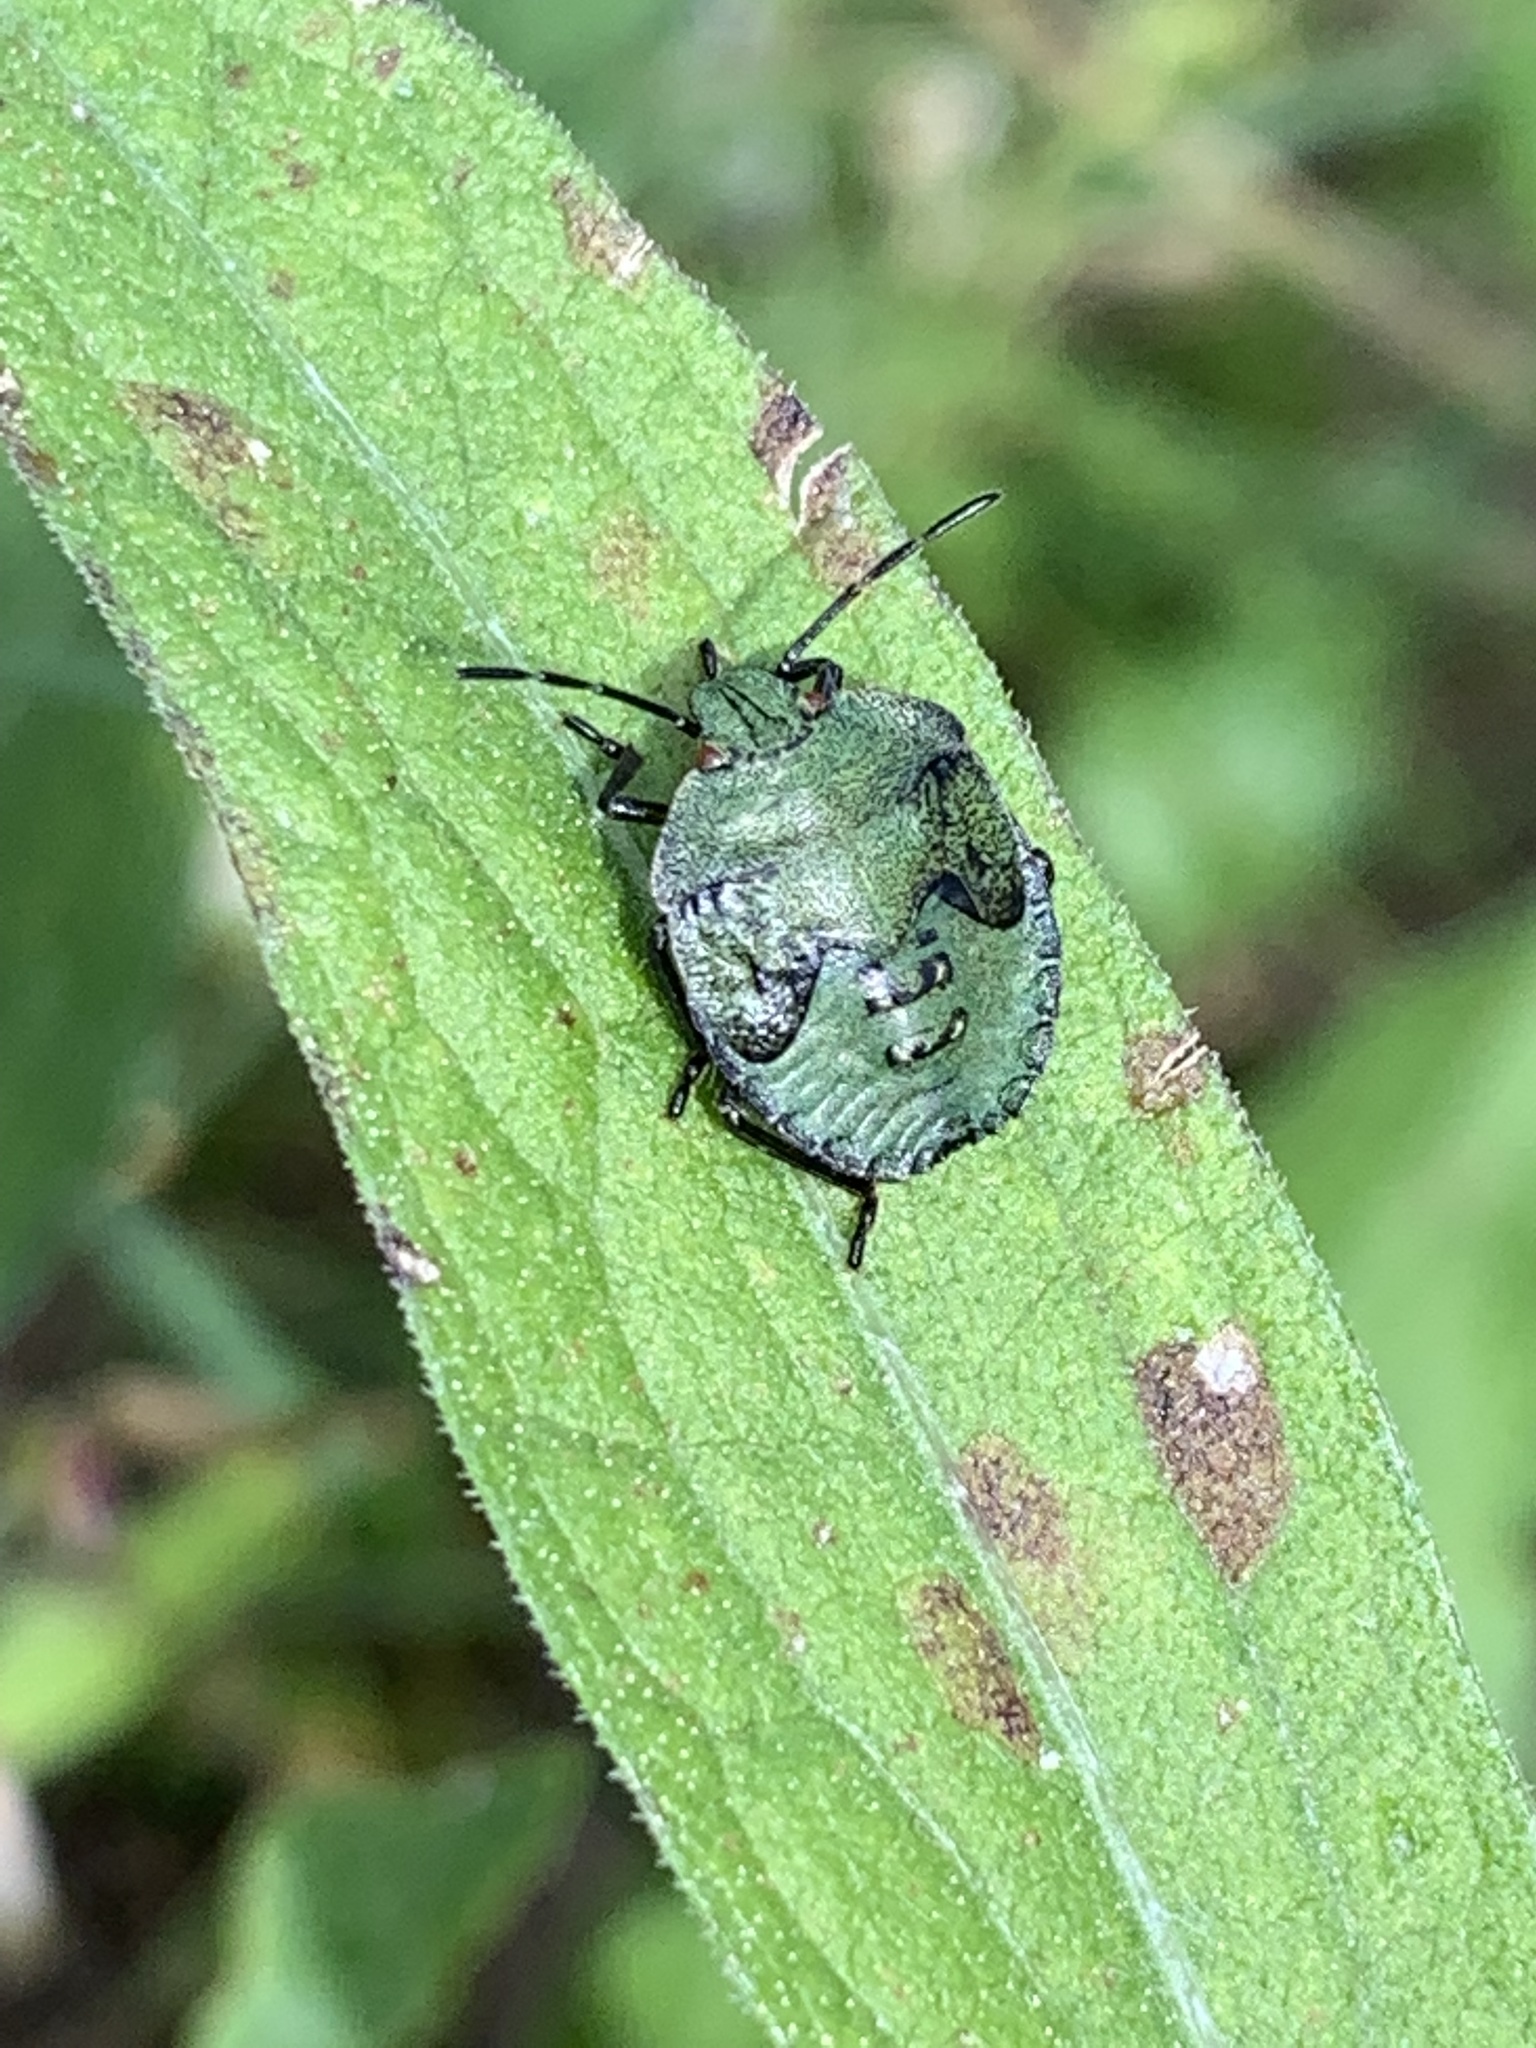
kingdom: Animalia
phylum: Arthropoda
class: Insecta
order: Hemiptera
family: Pentatomidae
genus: Palomena
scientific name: Palomena prasina
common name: Green shieldbug
